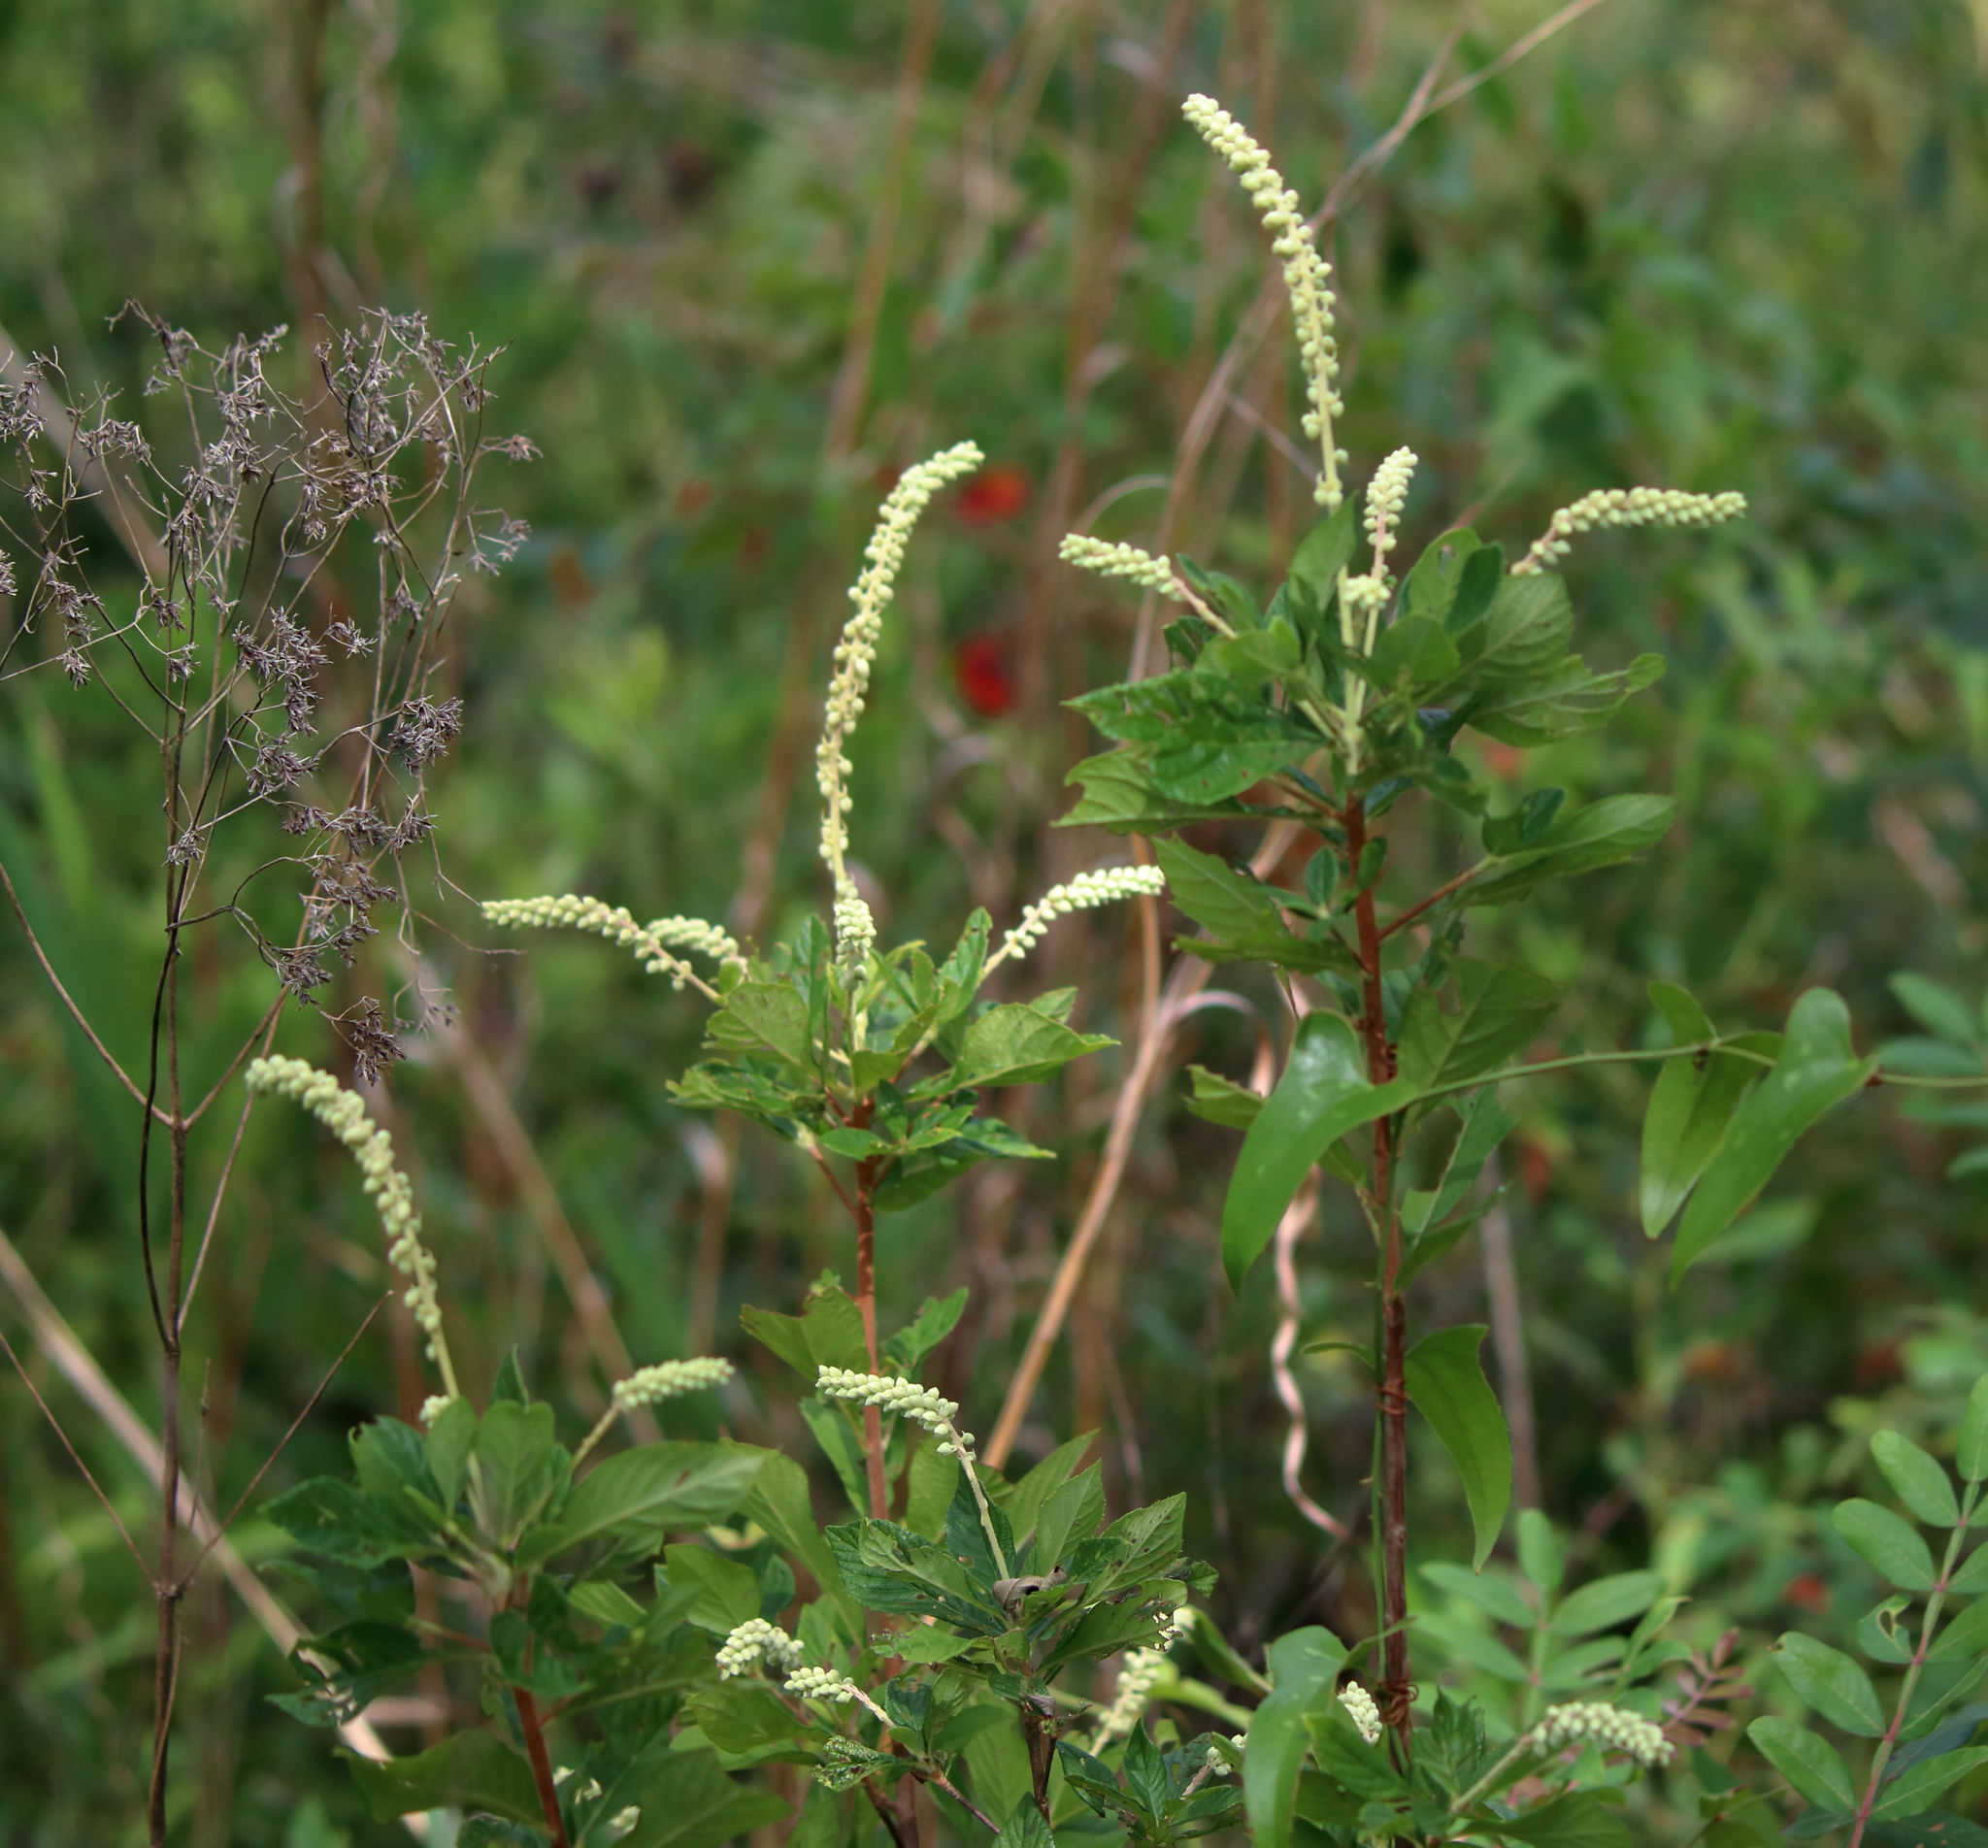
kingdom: Plantae
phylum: Tracheophyta
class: Magnoliopsida
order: Ericales
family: Clethraceae
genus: Clethra
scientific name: Clethra alnifolia
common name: Sweet pepperbush
